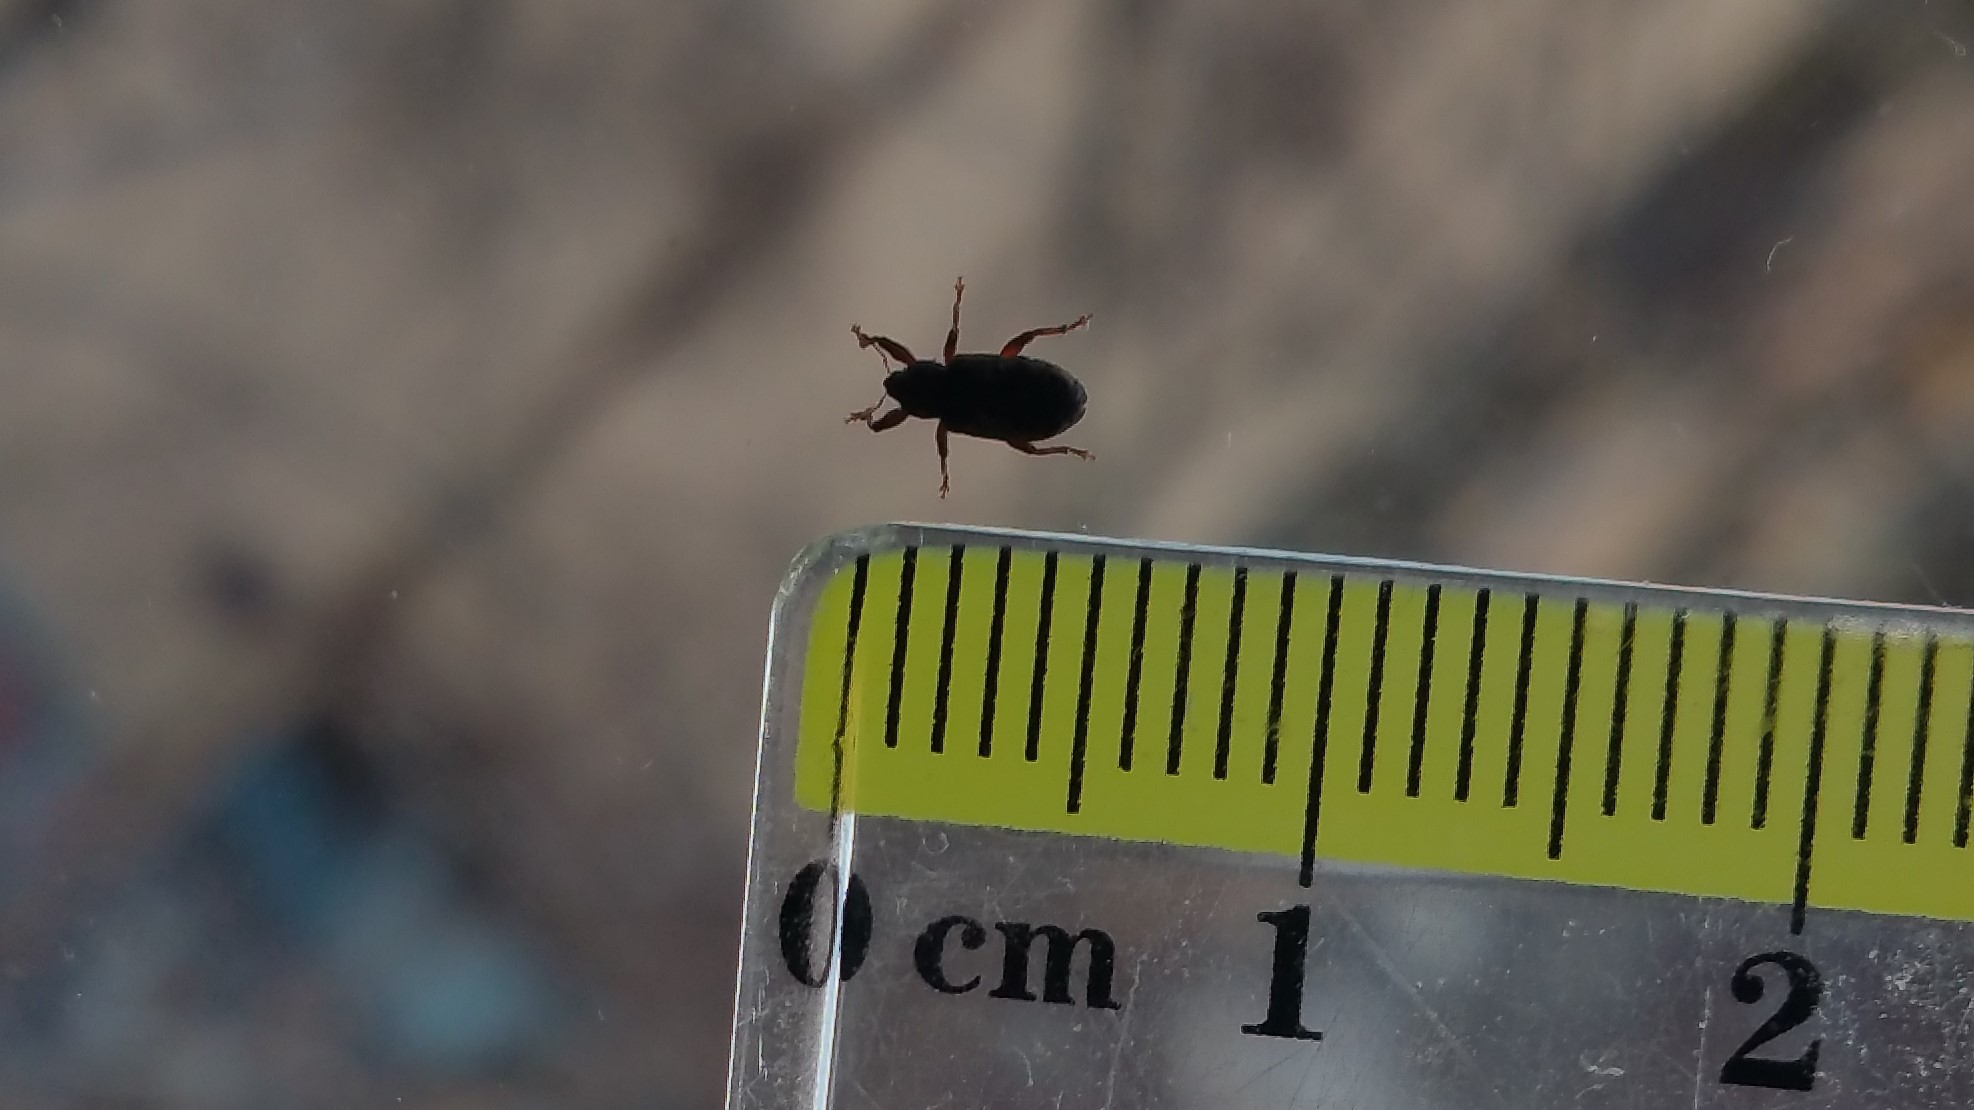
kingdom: Animalia
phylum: Arthropoda
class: Insecta
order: Coleoptera
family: Curculionidae
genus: Dorytomus
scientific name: Dorytomus ictor
